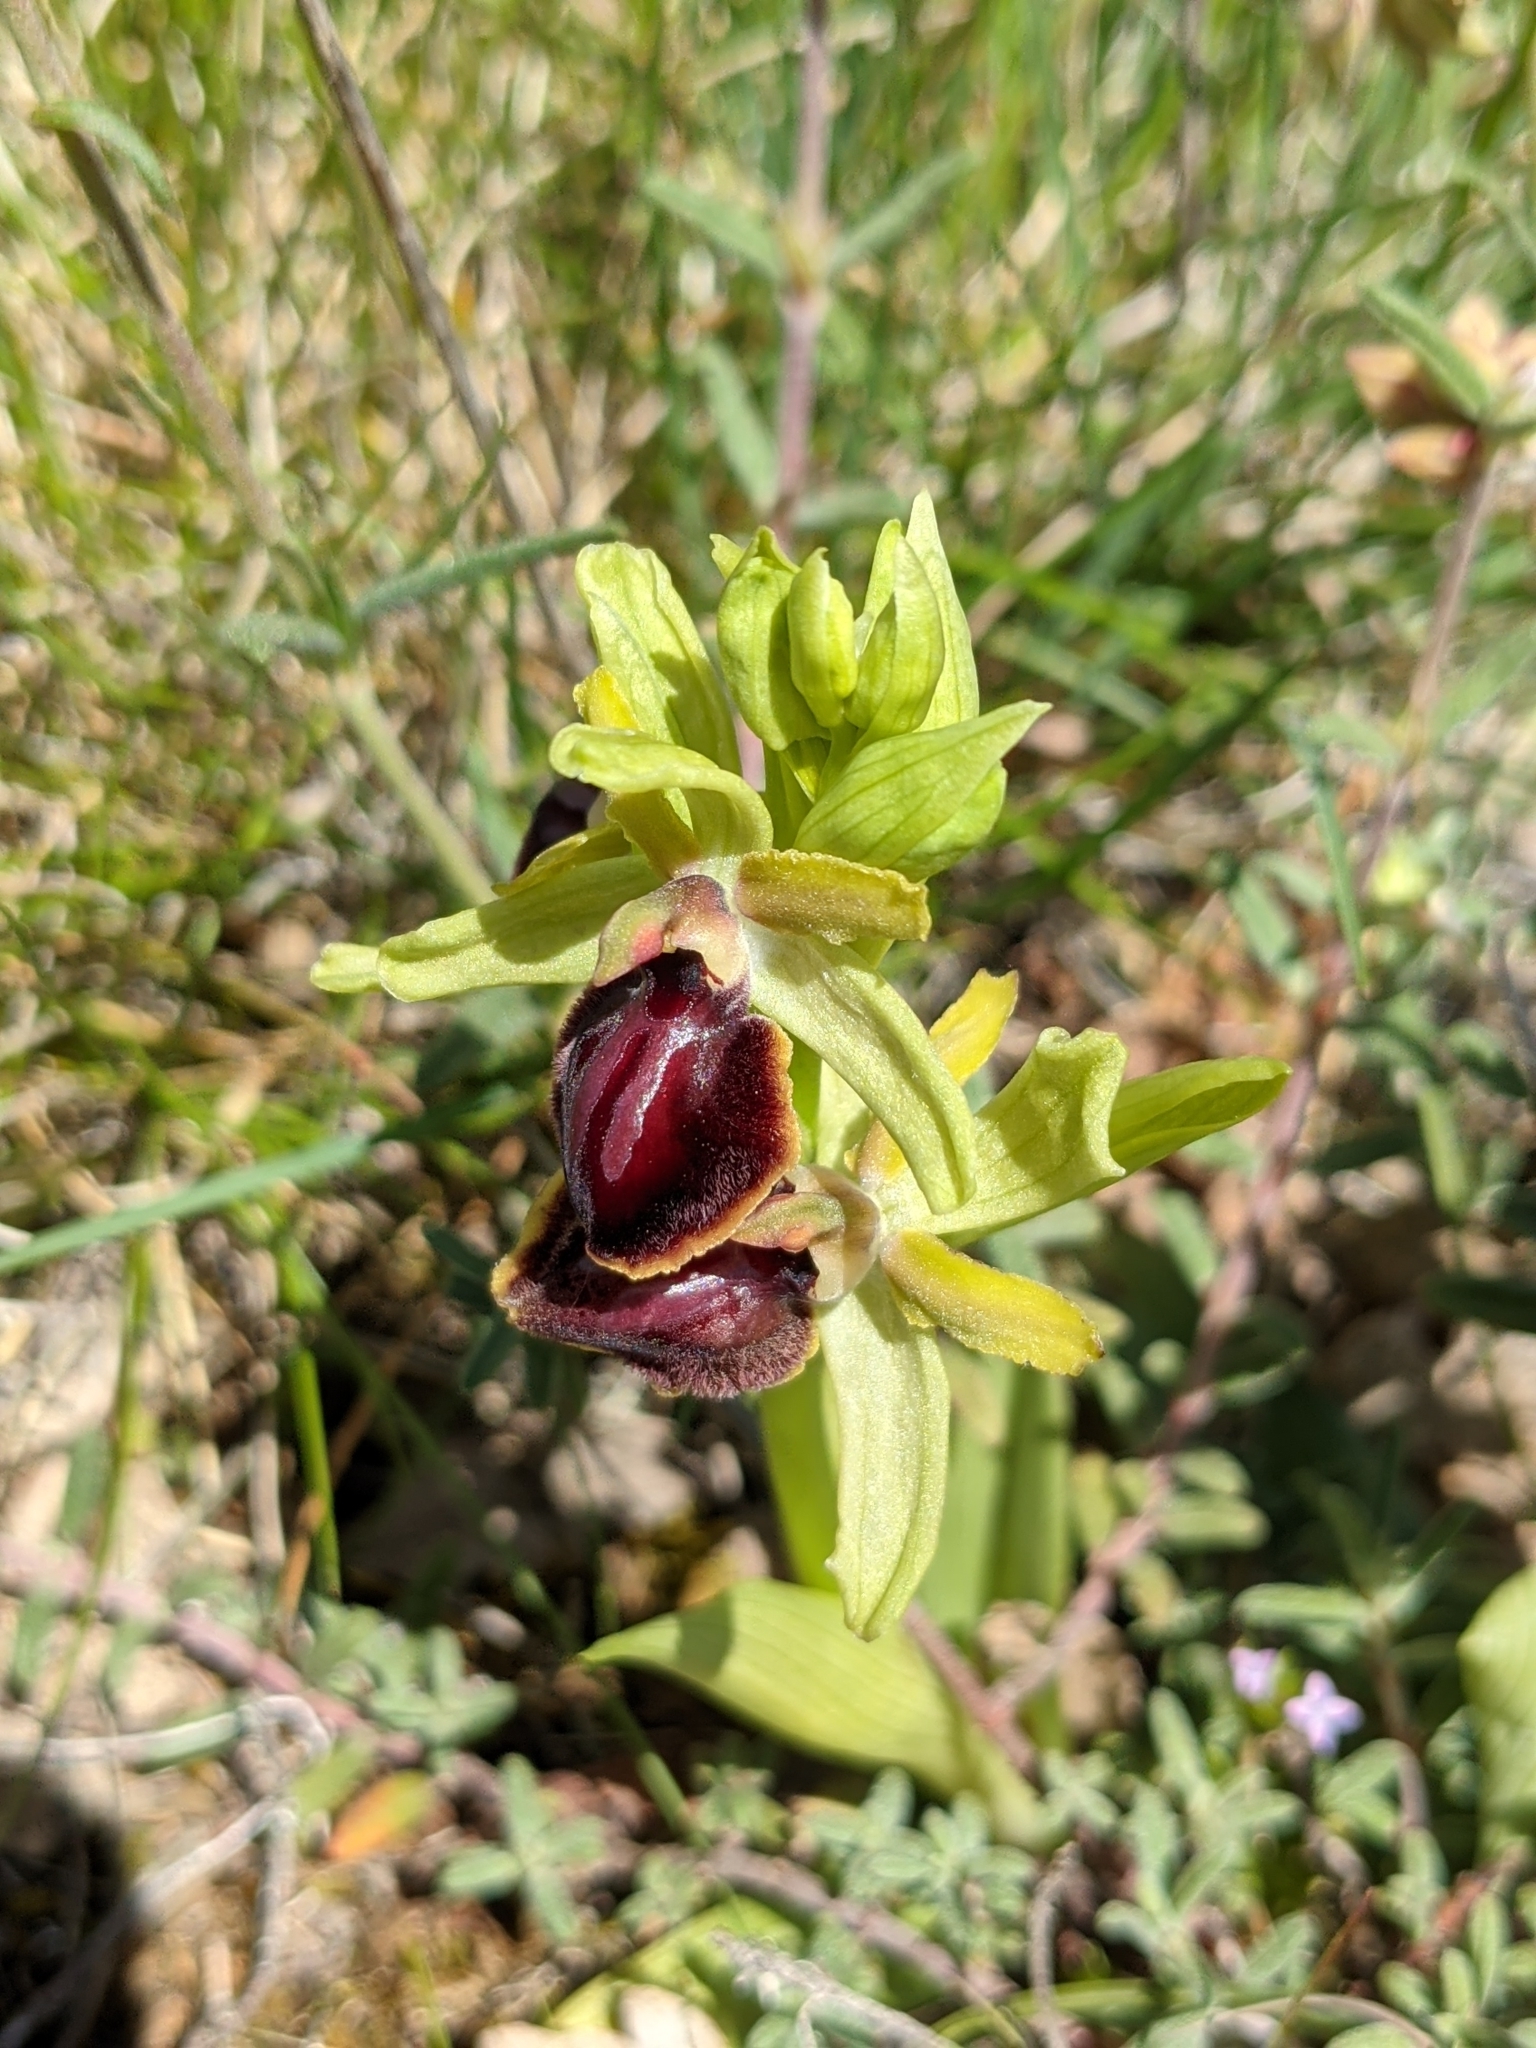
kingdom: Plantae
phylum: Tracheophyta
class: Liliopsida
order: Asparagales
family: Orchidaceae
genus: Ophrys
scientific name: Ophrys sphegodes
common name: Early spider-orchid
